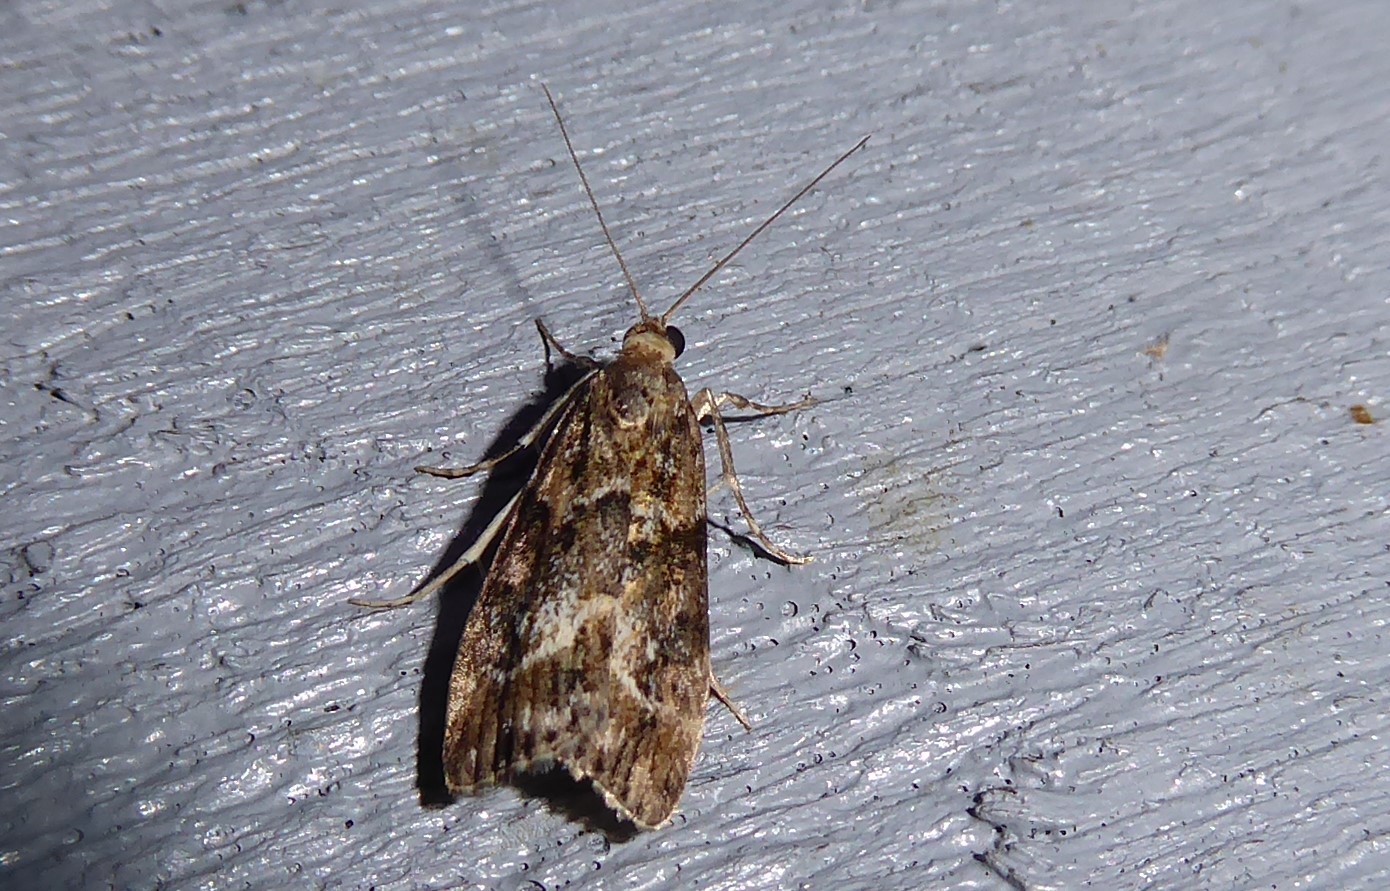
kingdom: Animalia
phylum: Arthropoda
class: Insecta
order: Lepidoptera
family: Crambidae
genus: Eudonia
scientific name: Eudonia legnota
